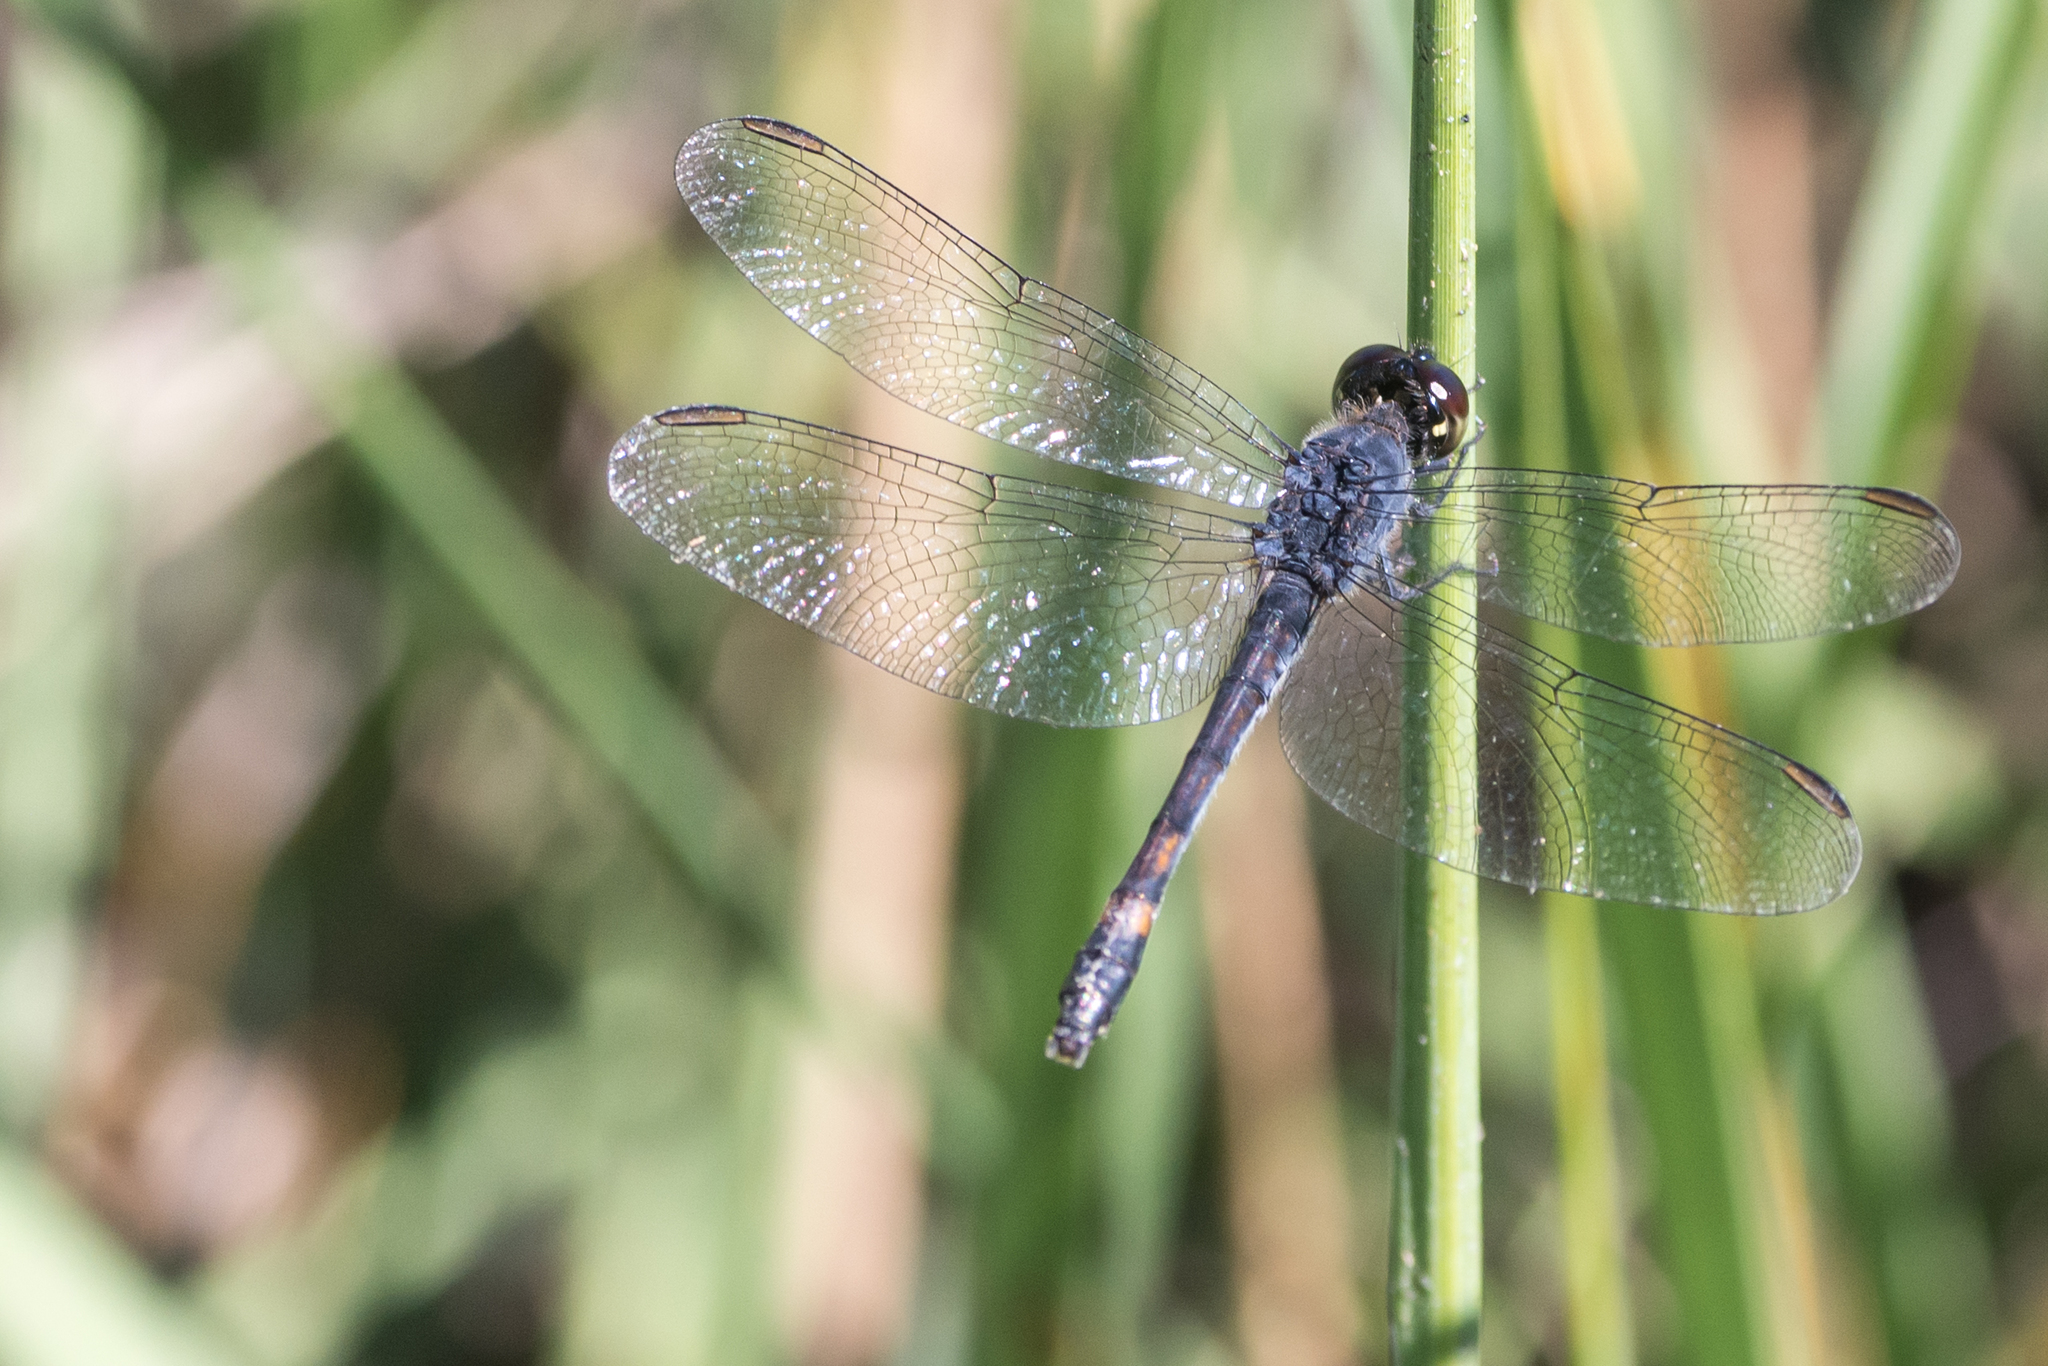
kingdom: Animalia
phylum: Arthropoda
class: Insecta
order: Odonata
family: Libellulidae
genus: Erythrodiplax
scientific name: Erythrodiplax berenice
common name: Seaside dragonlet
